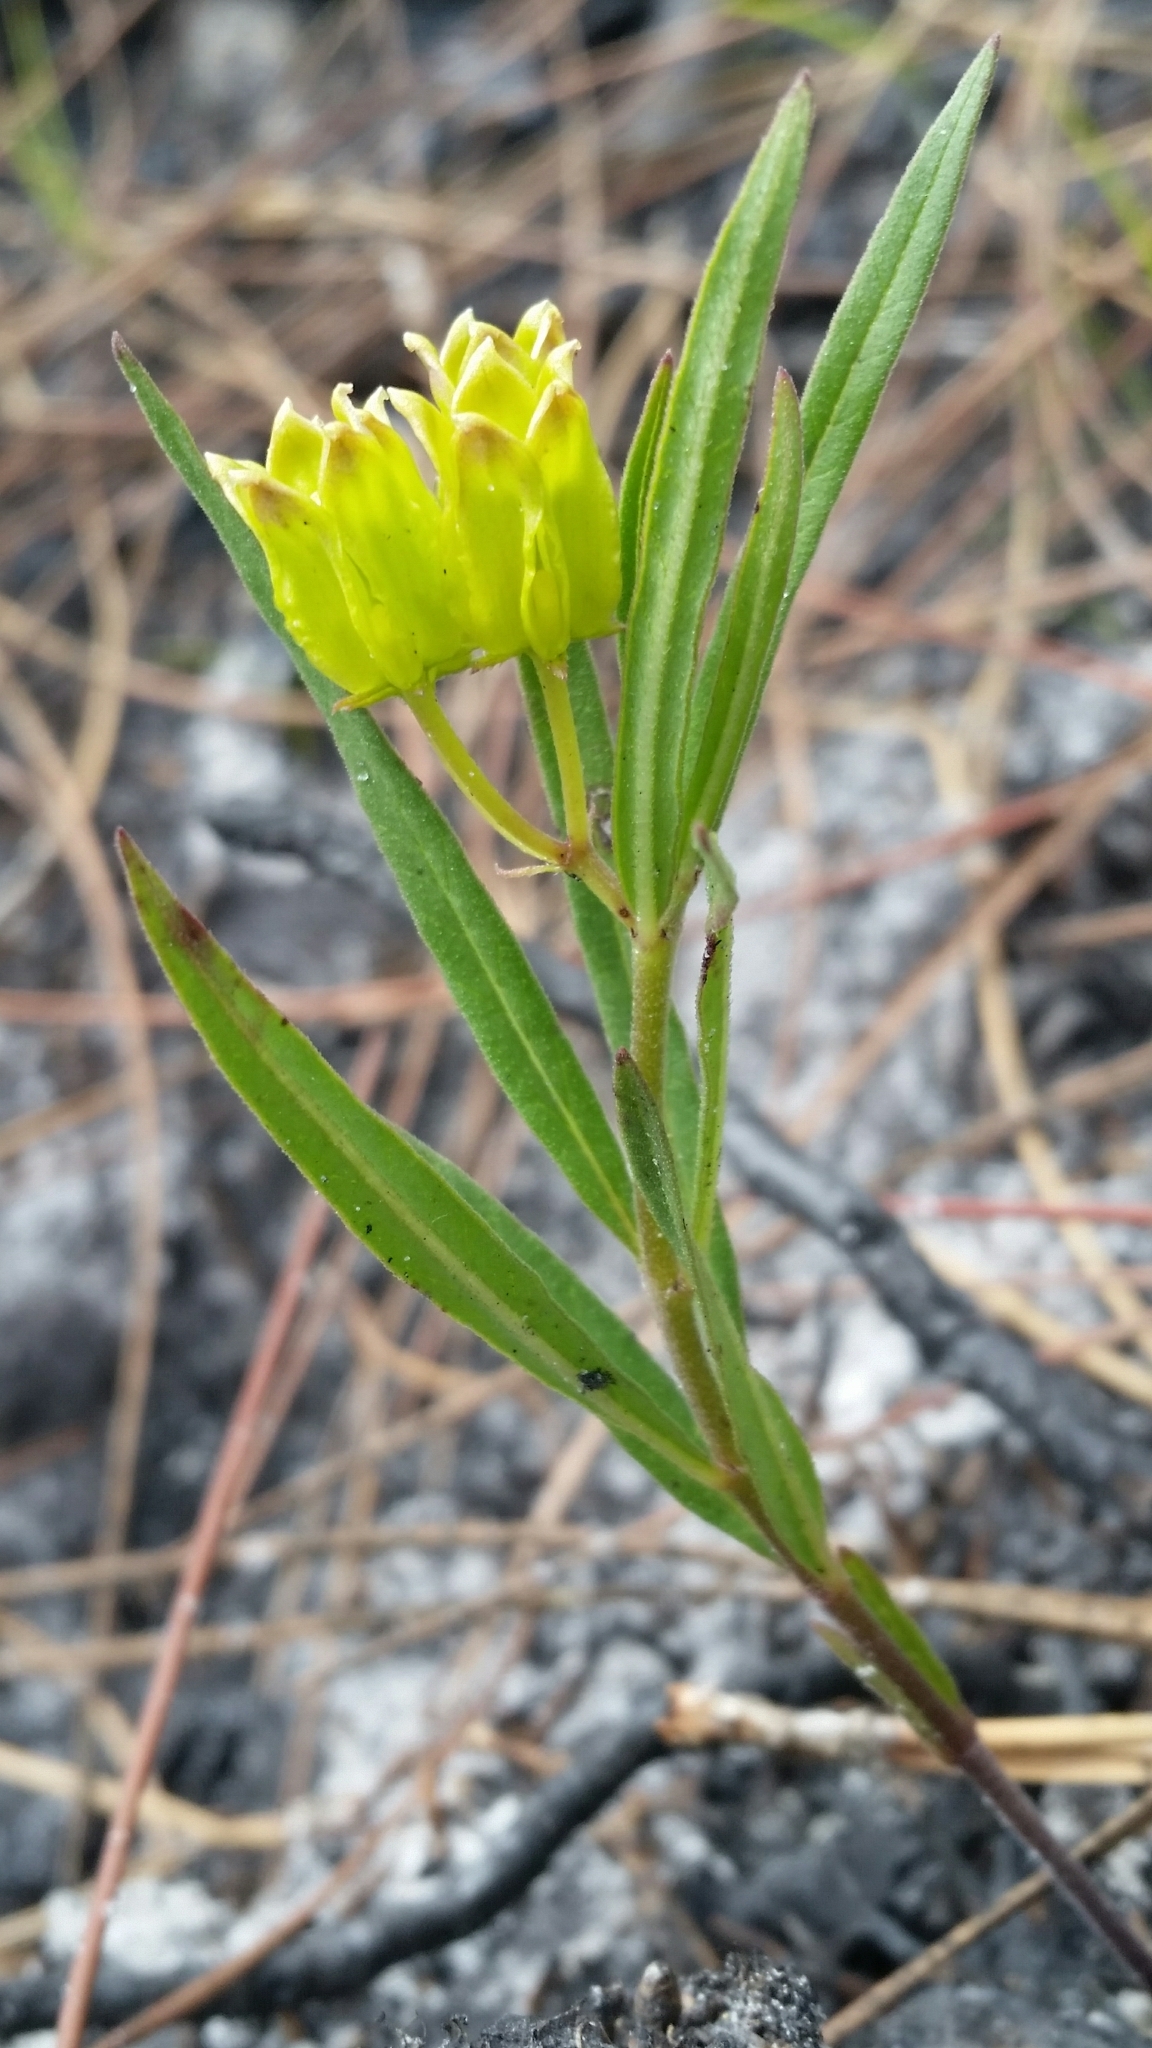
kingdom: Plantae
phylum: Tracheophyta
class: Magnoliopsida
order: Gentianales
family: Apocynaceae
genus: Asclepias
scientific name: Asclepias pedicellata
